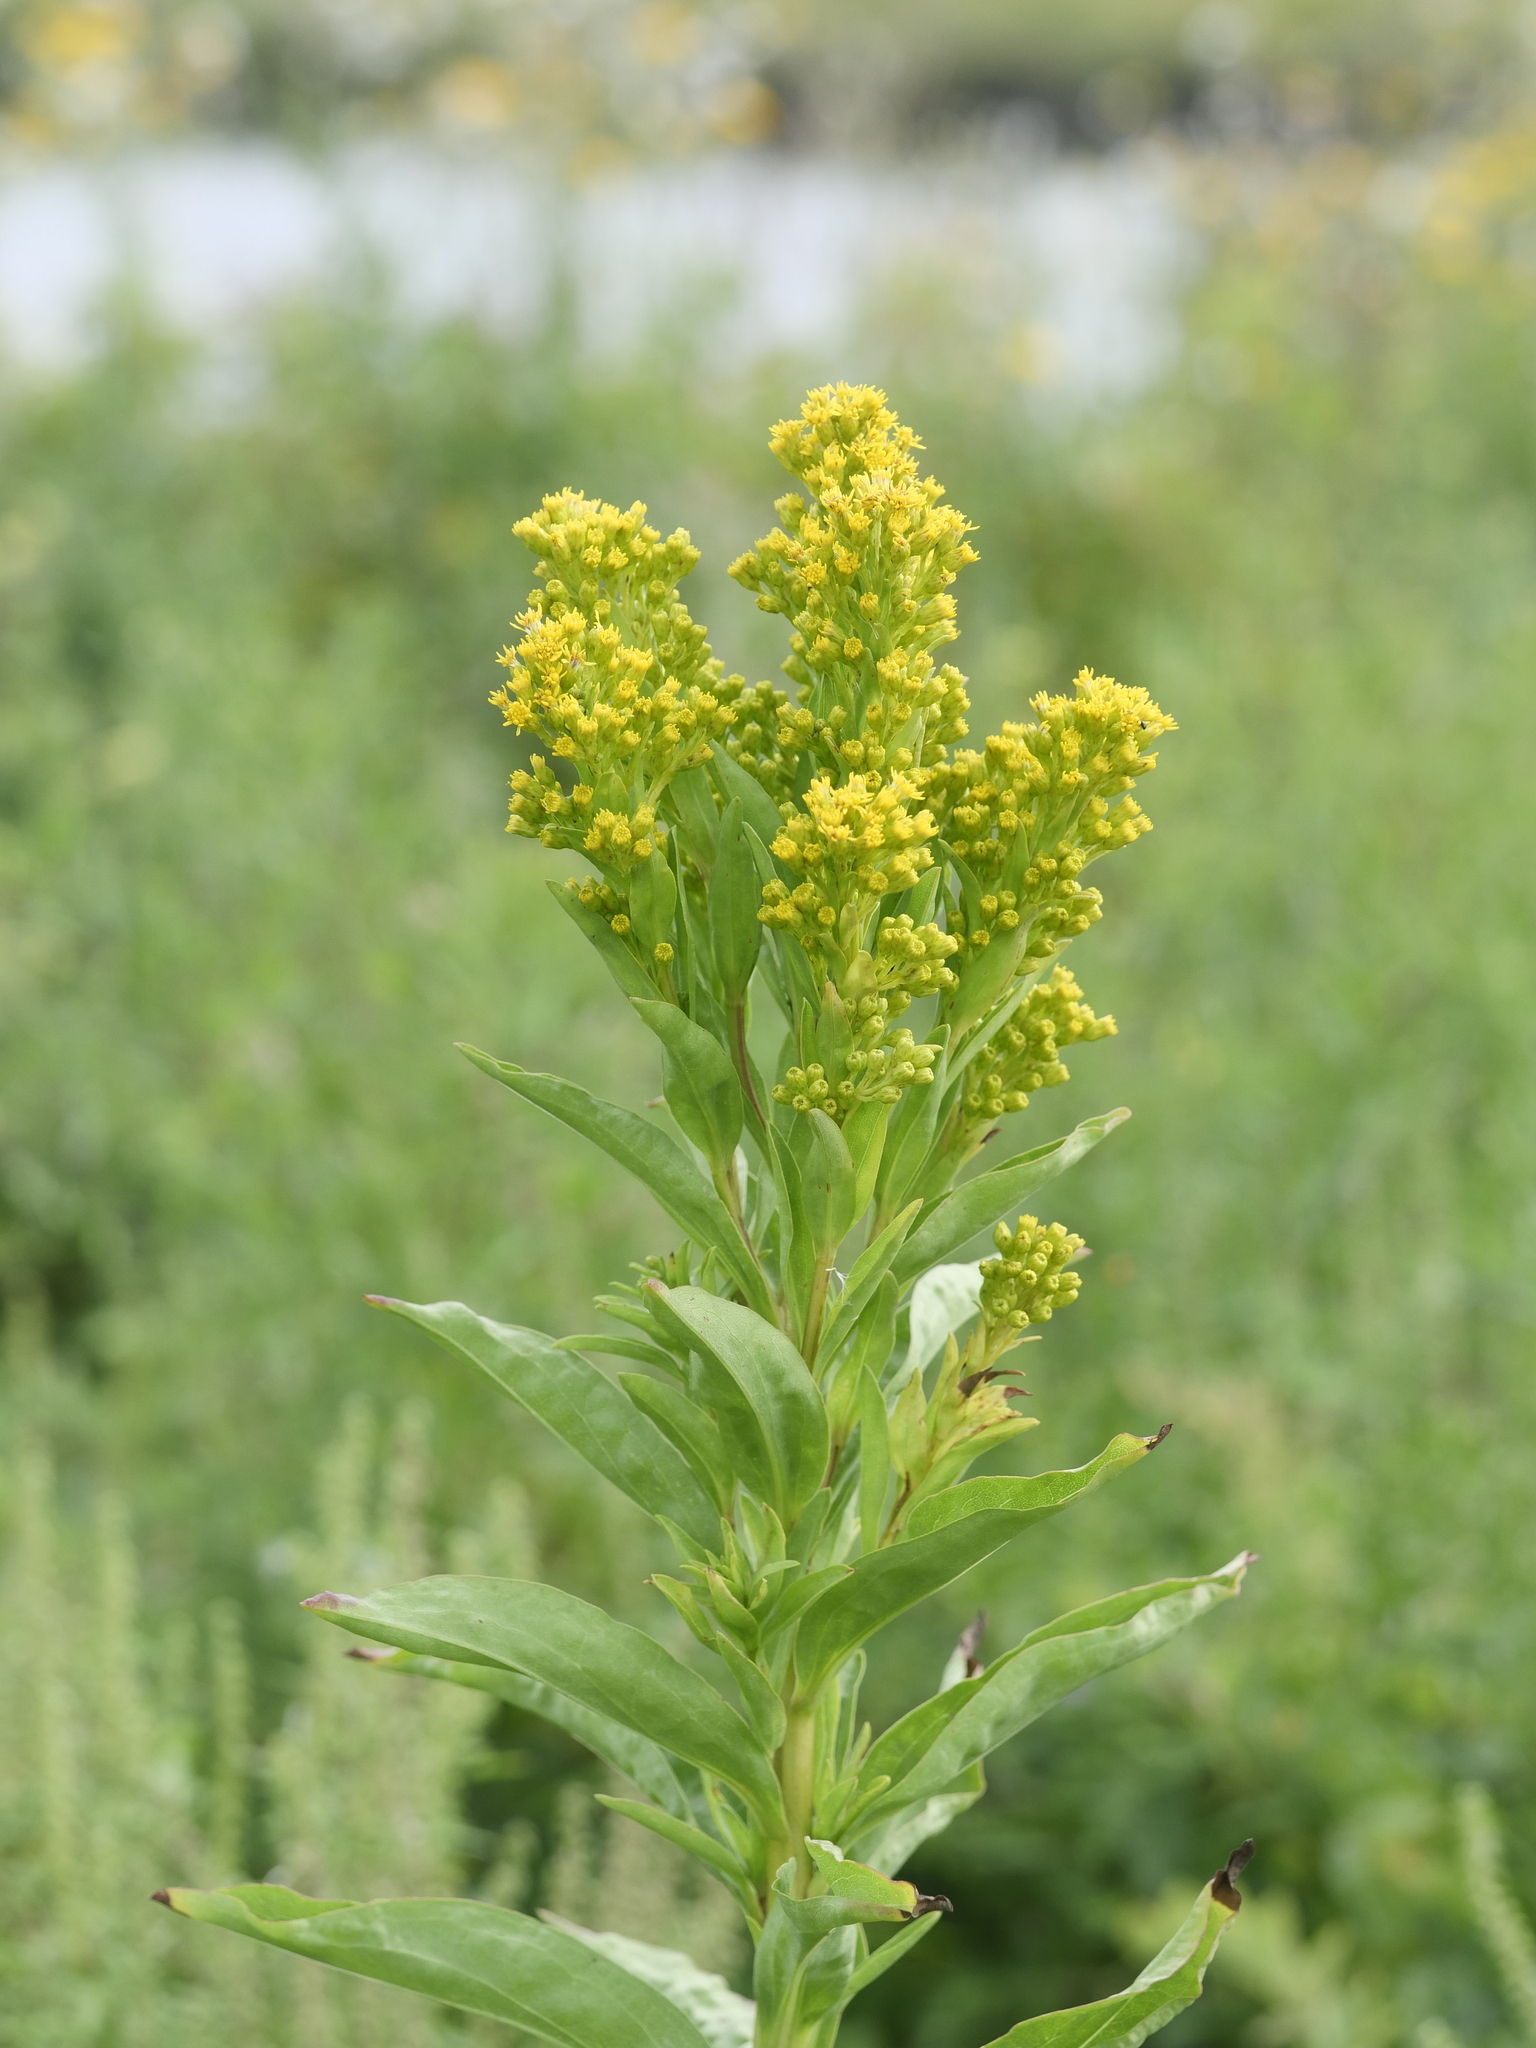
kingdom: Plantae
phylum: Tracheophyta
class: Magnoliopsida
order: Asterales
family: Asteraceae
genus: Solidago
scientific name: Solidago sempervirens
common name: Salt-marsh goldenrod
